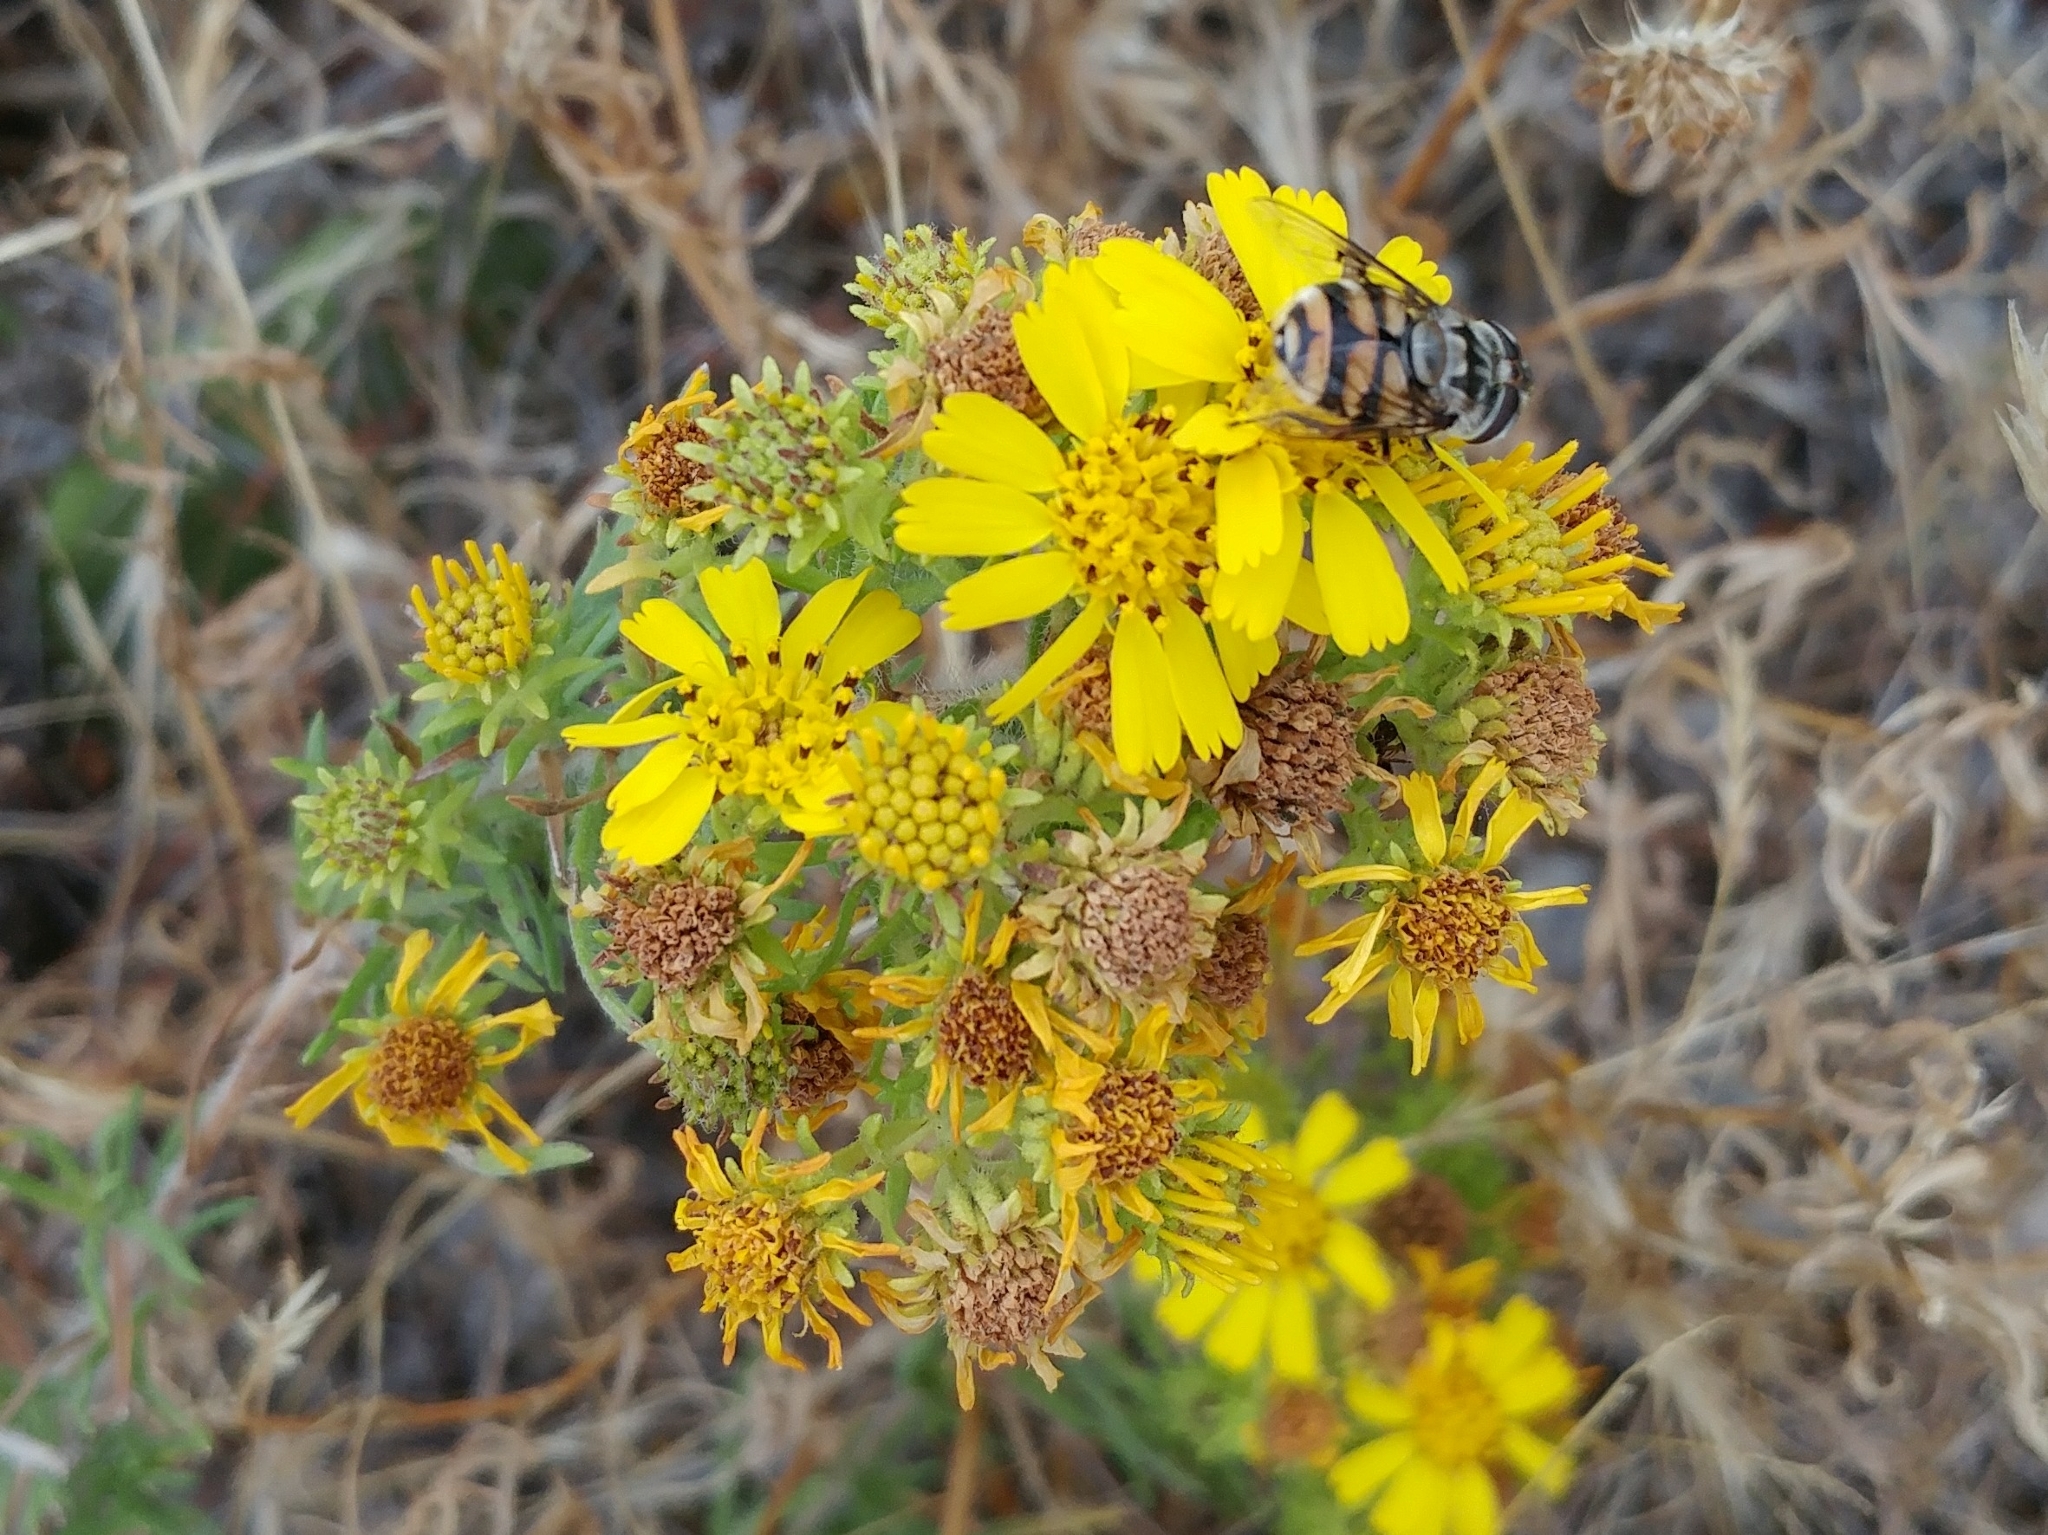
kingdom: Animalia
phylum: Arthropoda
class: Insecta
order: Diptera
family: Syrphidae
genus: Copestylum
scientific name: Copestylum avidum
